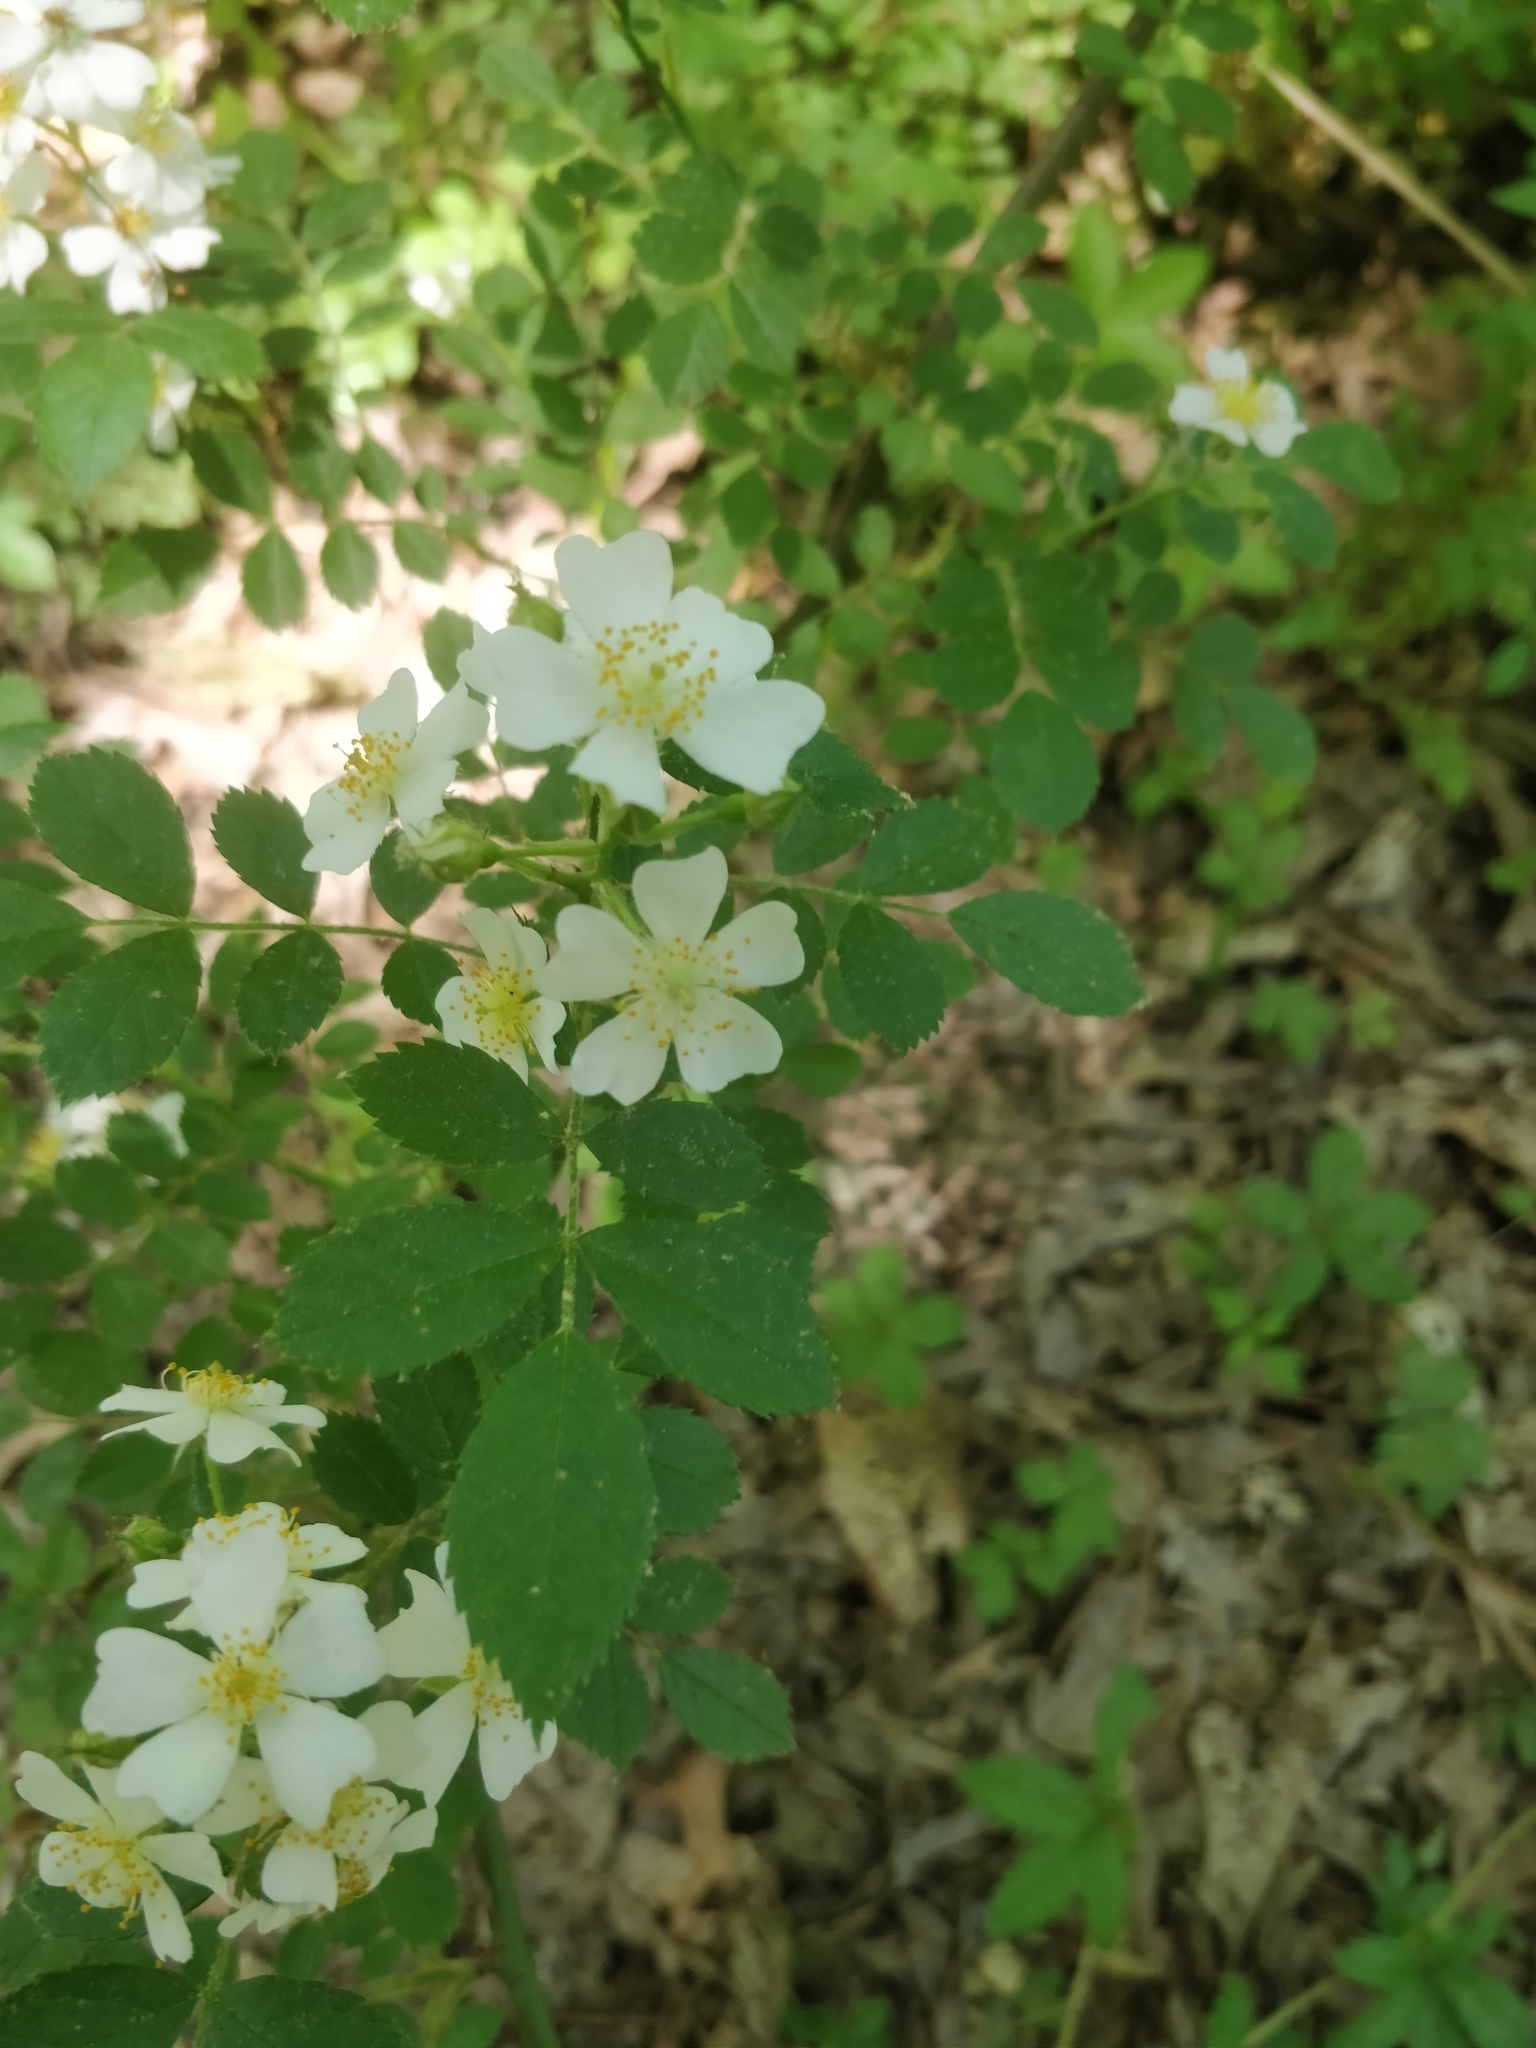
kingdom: Plantae
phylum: Tracheophyta
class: Magnoliopsida
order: Rosales
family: Rosaceae
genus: Rosa
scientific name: Rosa multiflora
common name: Multiflora rose
